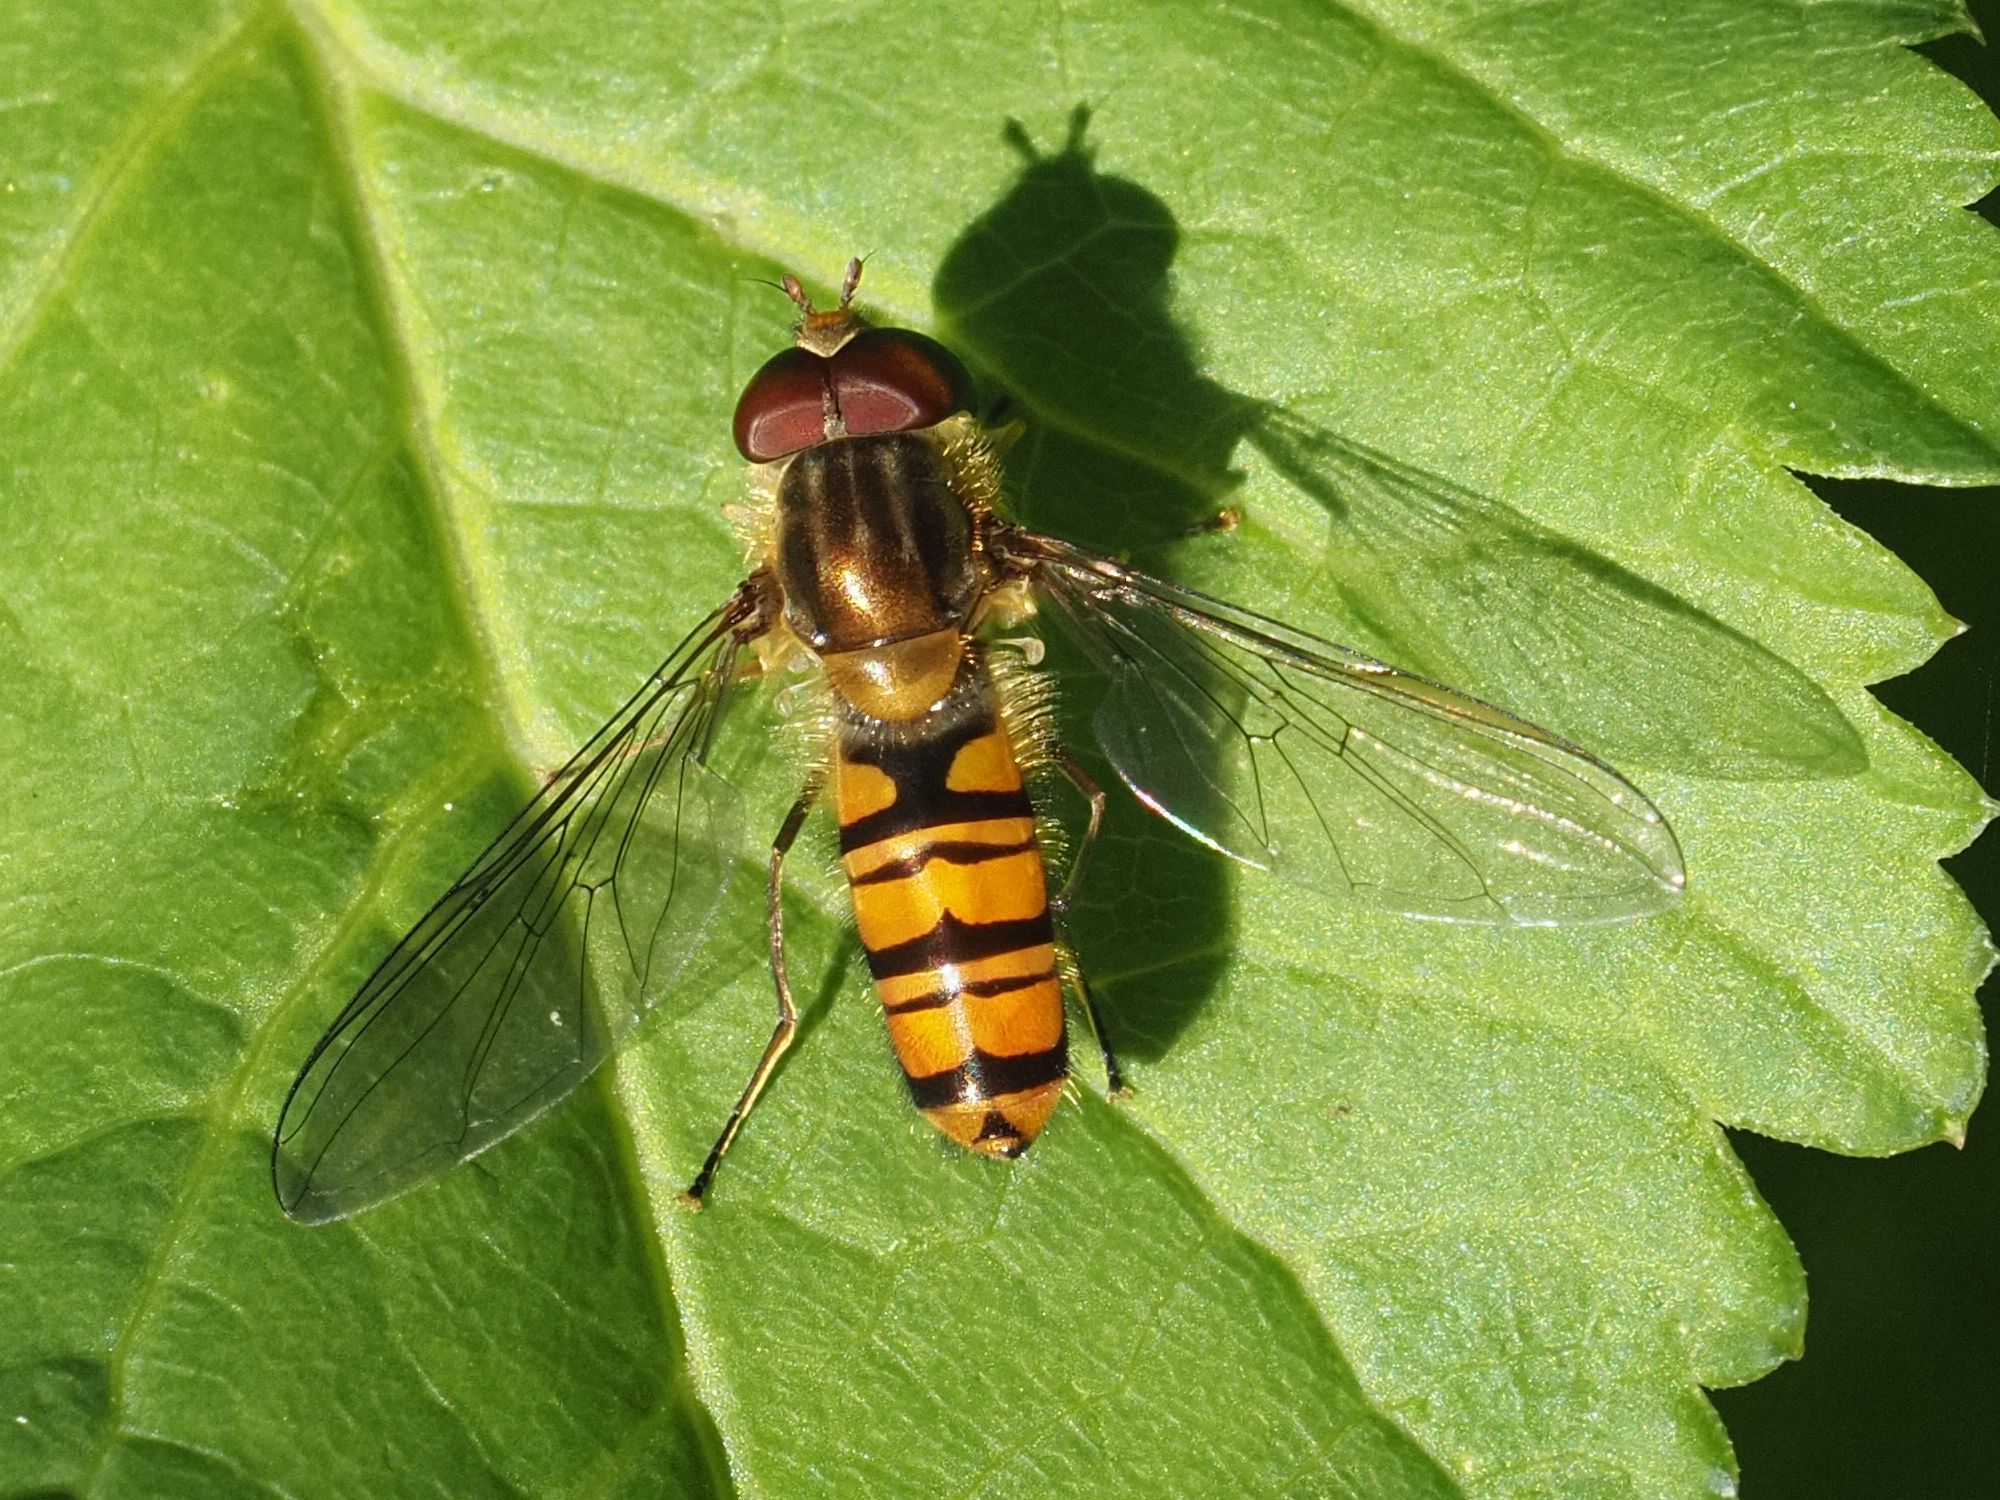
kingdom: Animalia
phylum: Arthropoda
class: Insecta
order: Diptera
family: Syrphidae
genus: Episyrphus
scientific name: Episyrphus balteatus
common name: Marmalade hoverfly
